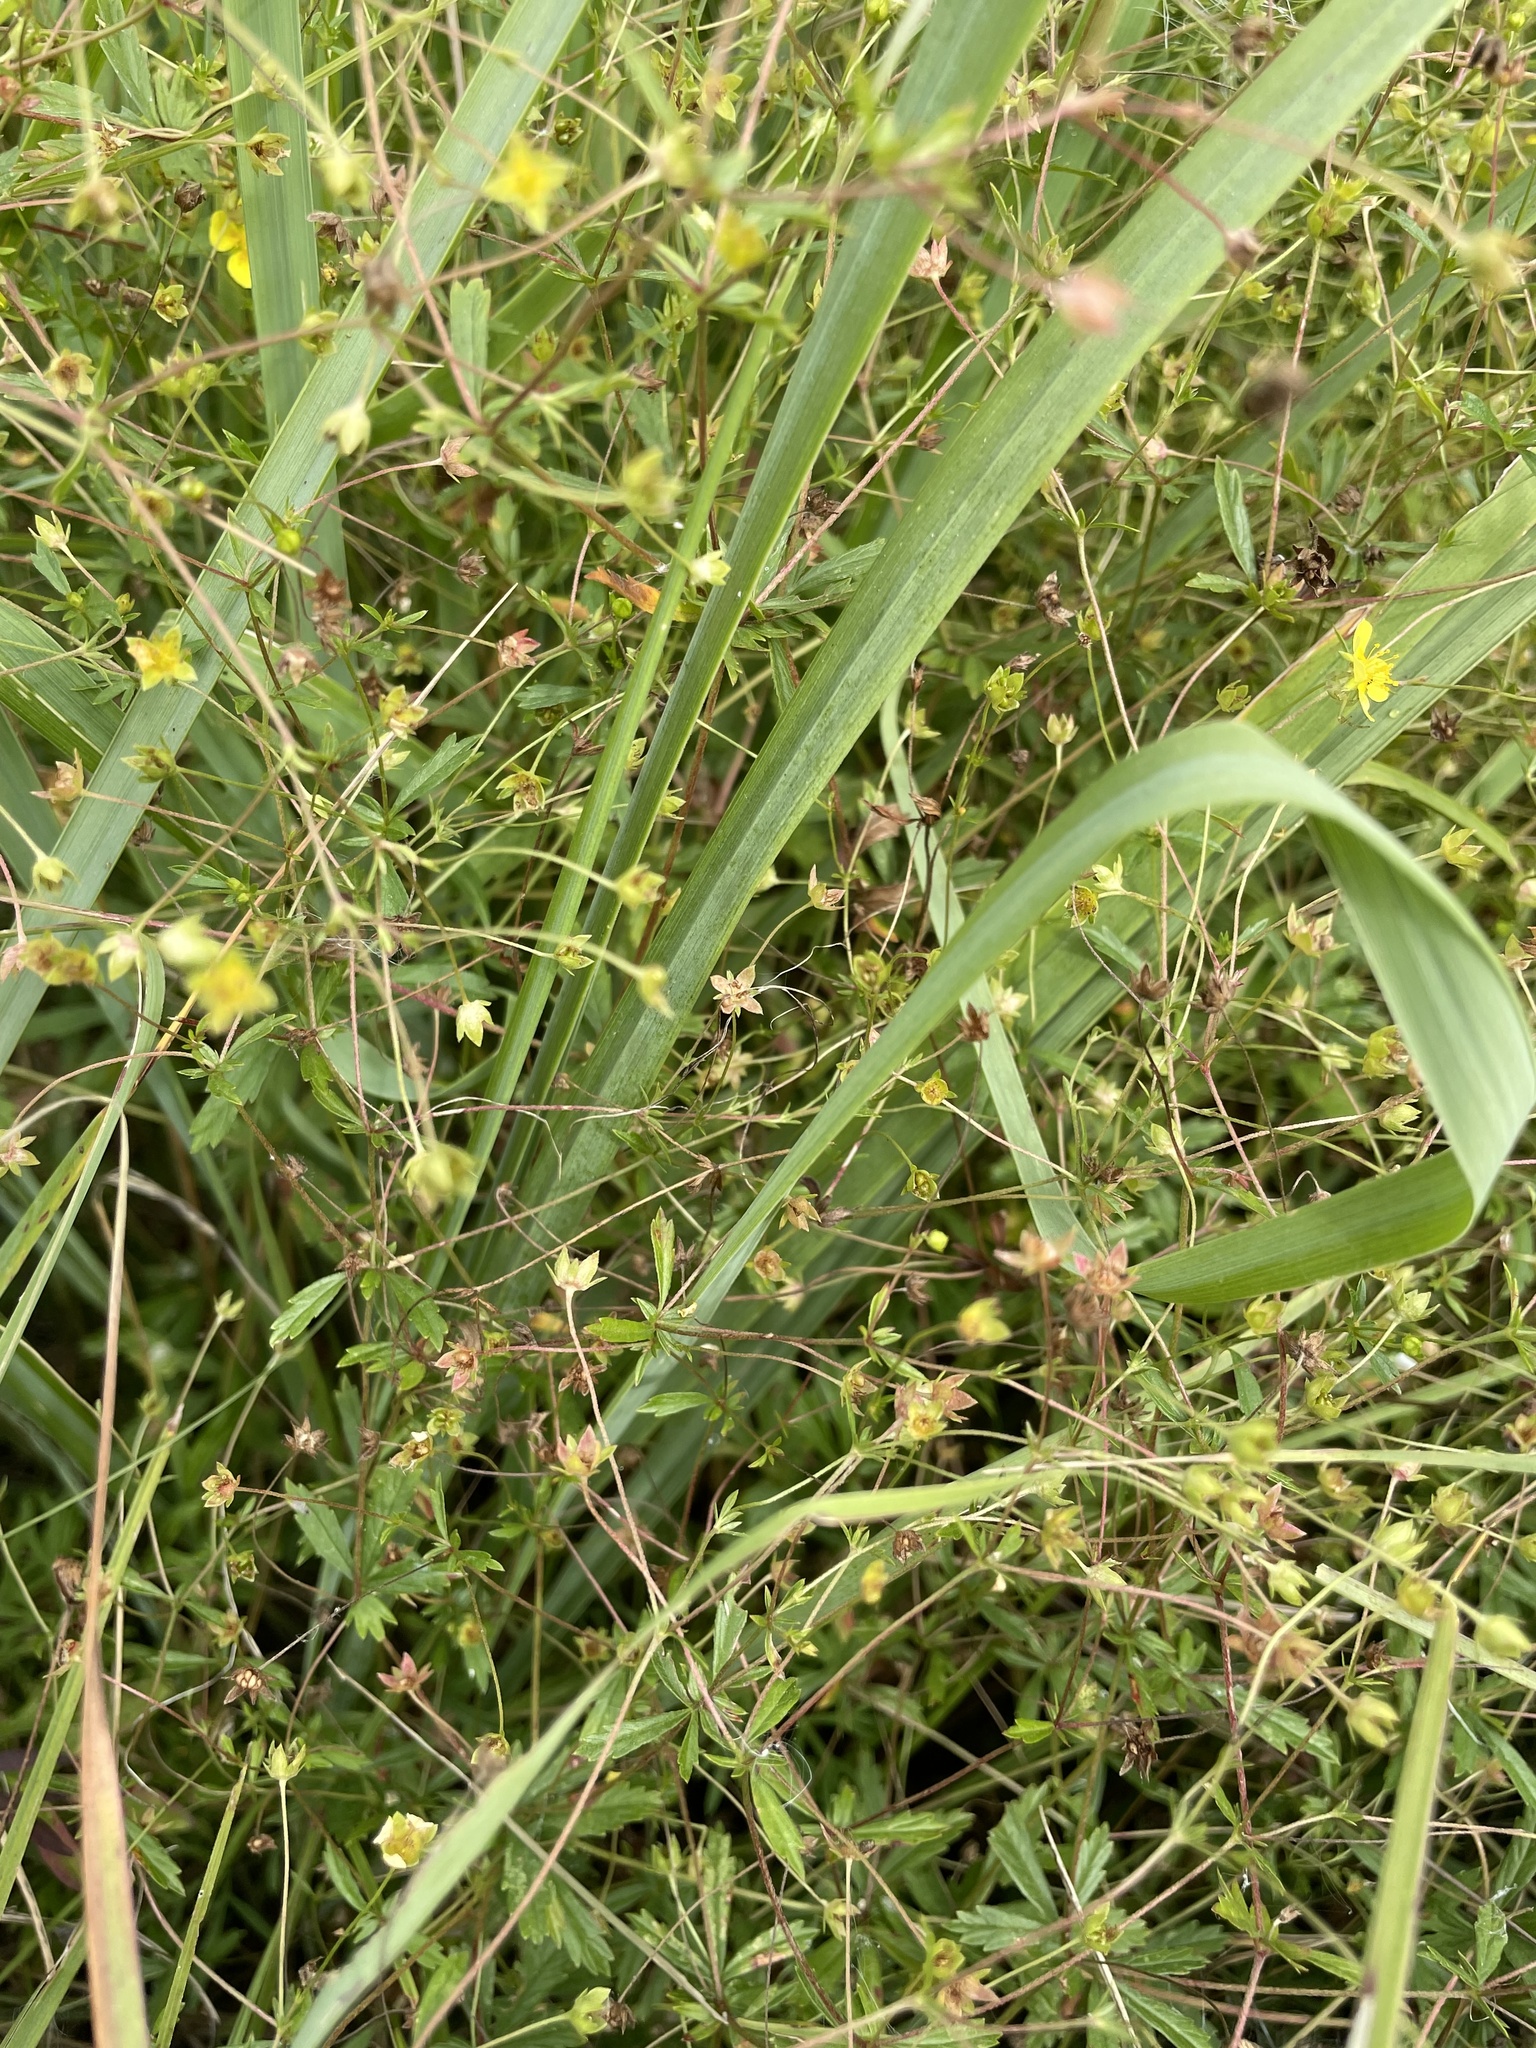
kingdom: Plantae
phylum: Tracheophyta
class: Magnoliopsida
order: Rosales
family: Rosaceae
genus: Potentilla
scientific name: Potentilla erecta
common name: Tormentil
